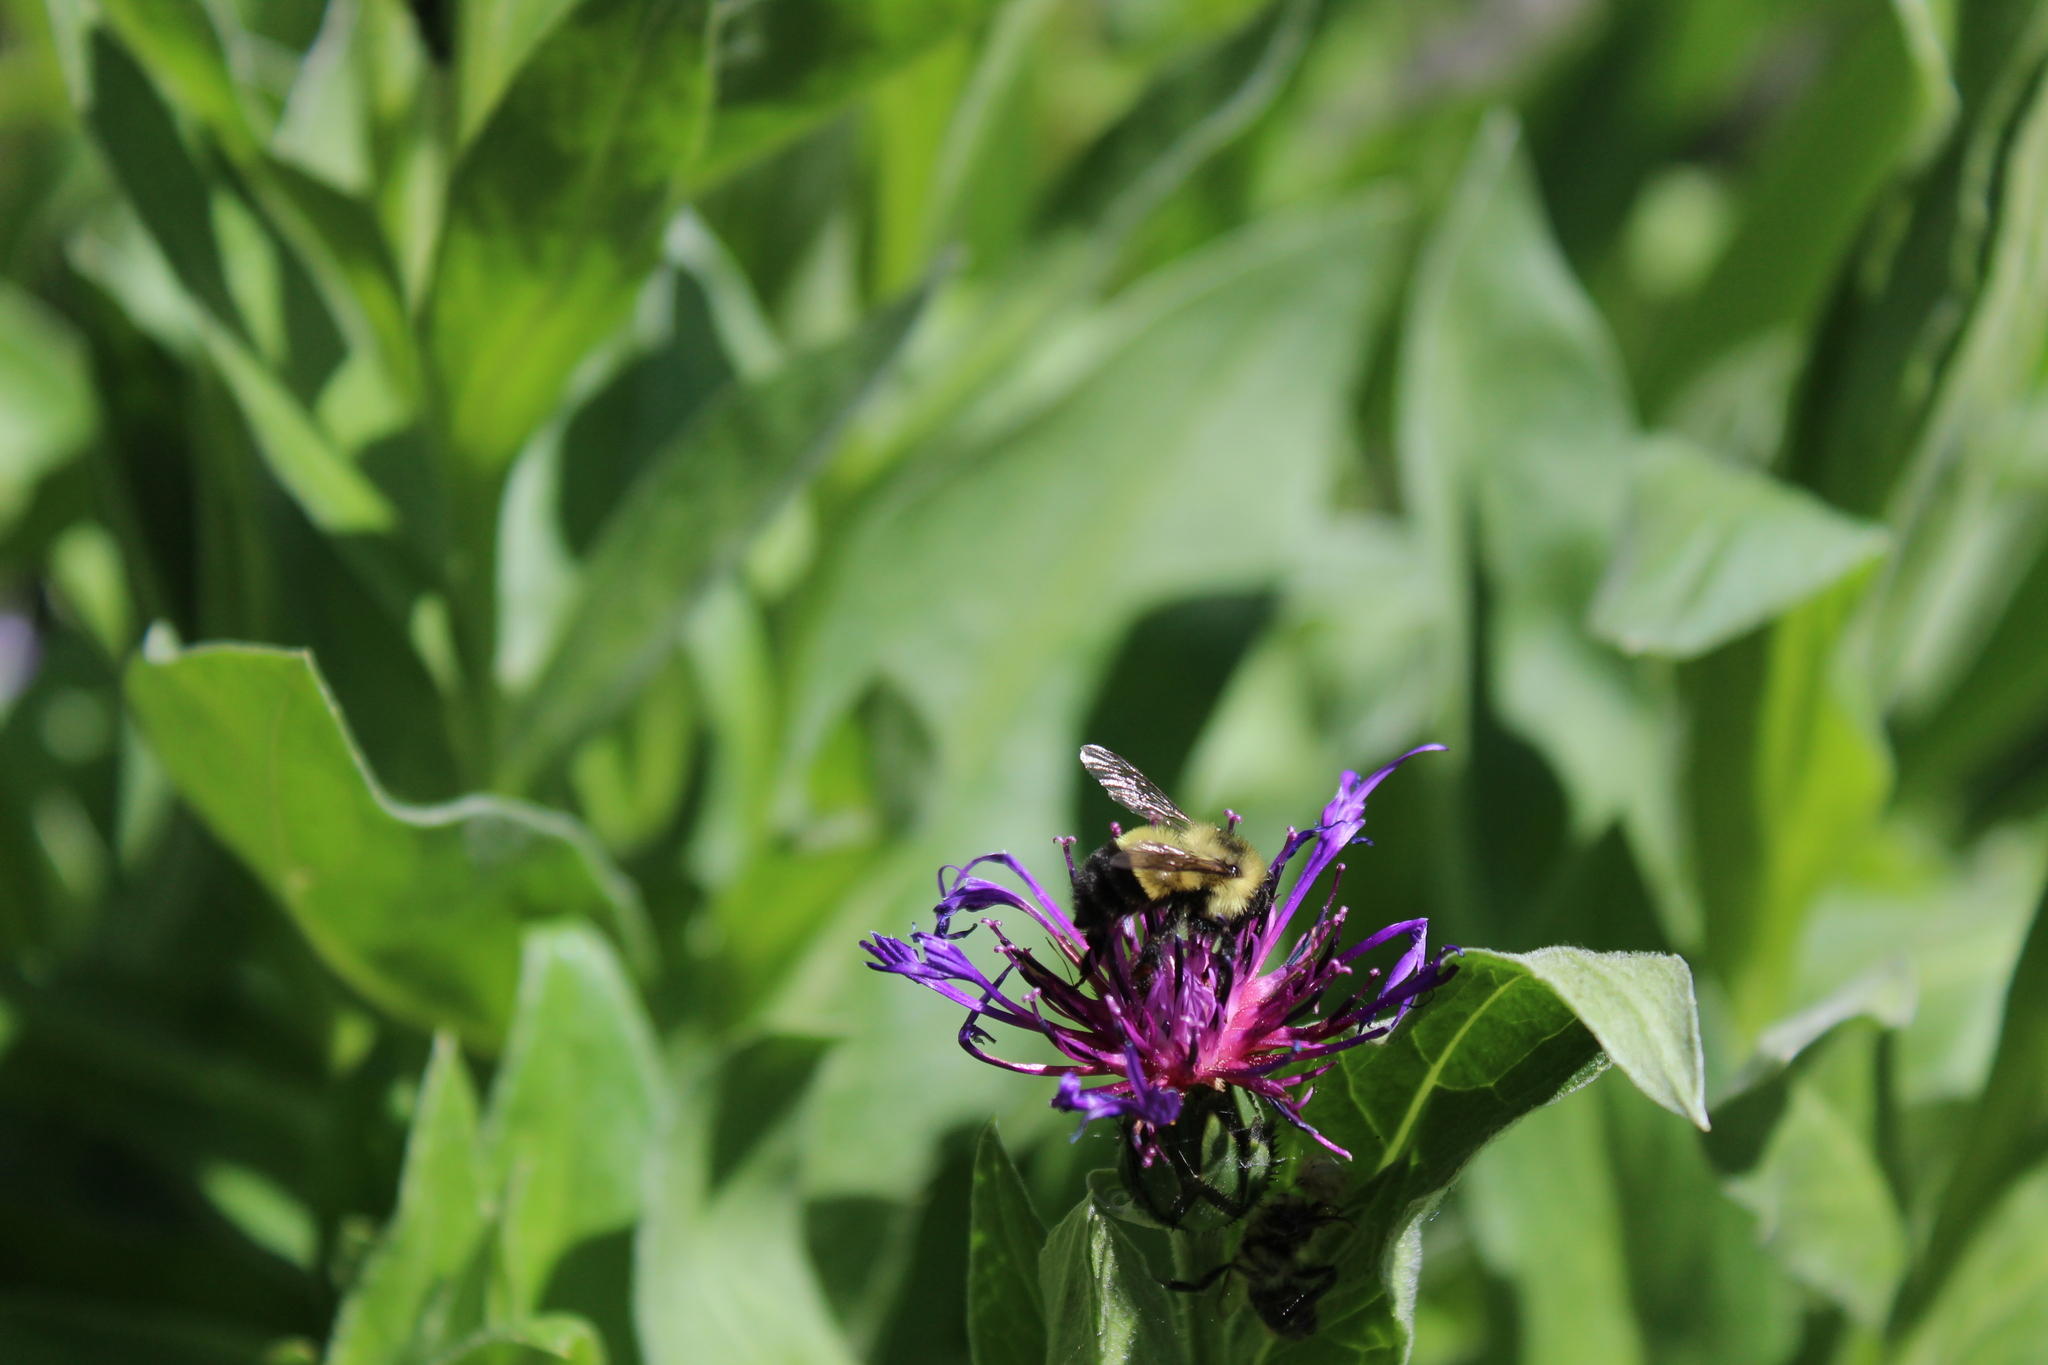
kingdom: Animalia
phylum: Arthropoda
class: Insecta
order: Hymenoptera
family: Apidae
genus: Bombus
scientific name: Bombus vagans
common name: Half-black bumble bee
